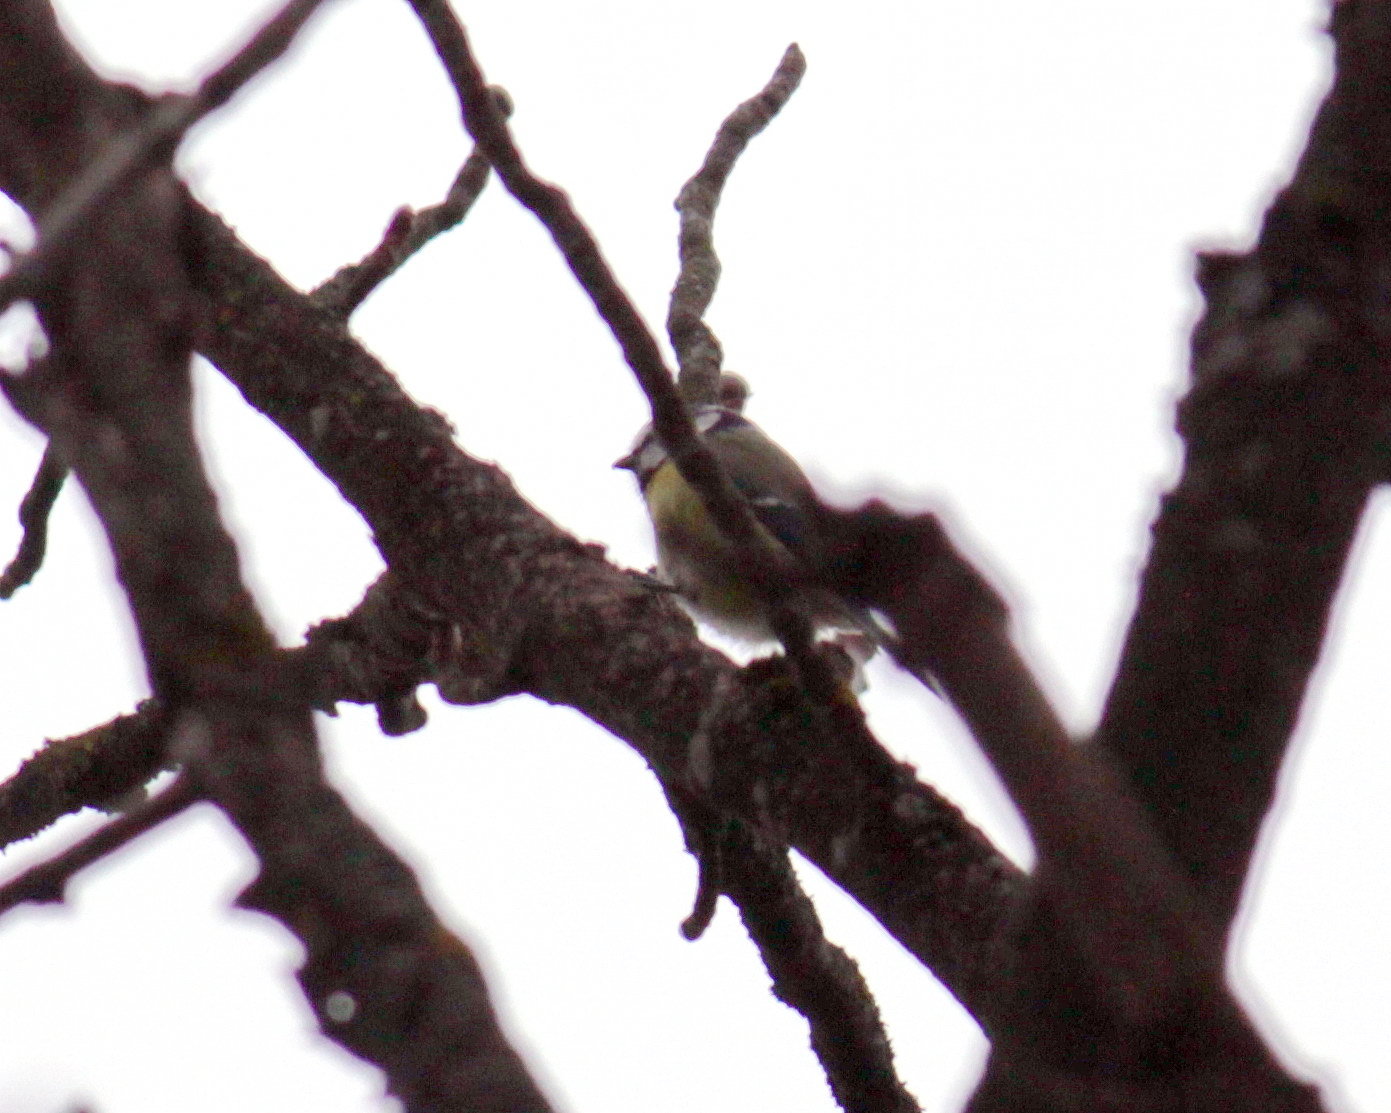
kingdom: Animalia
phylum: Chordata
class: Aves
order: Passeriformes
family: Paridae
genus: Cyanistes
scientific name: Cyanistes caeruleus
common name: Eurasian blue tit
